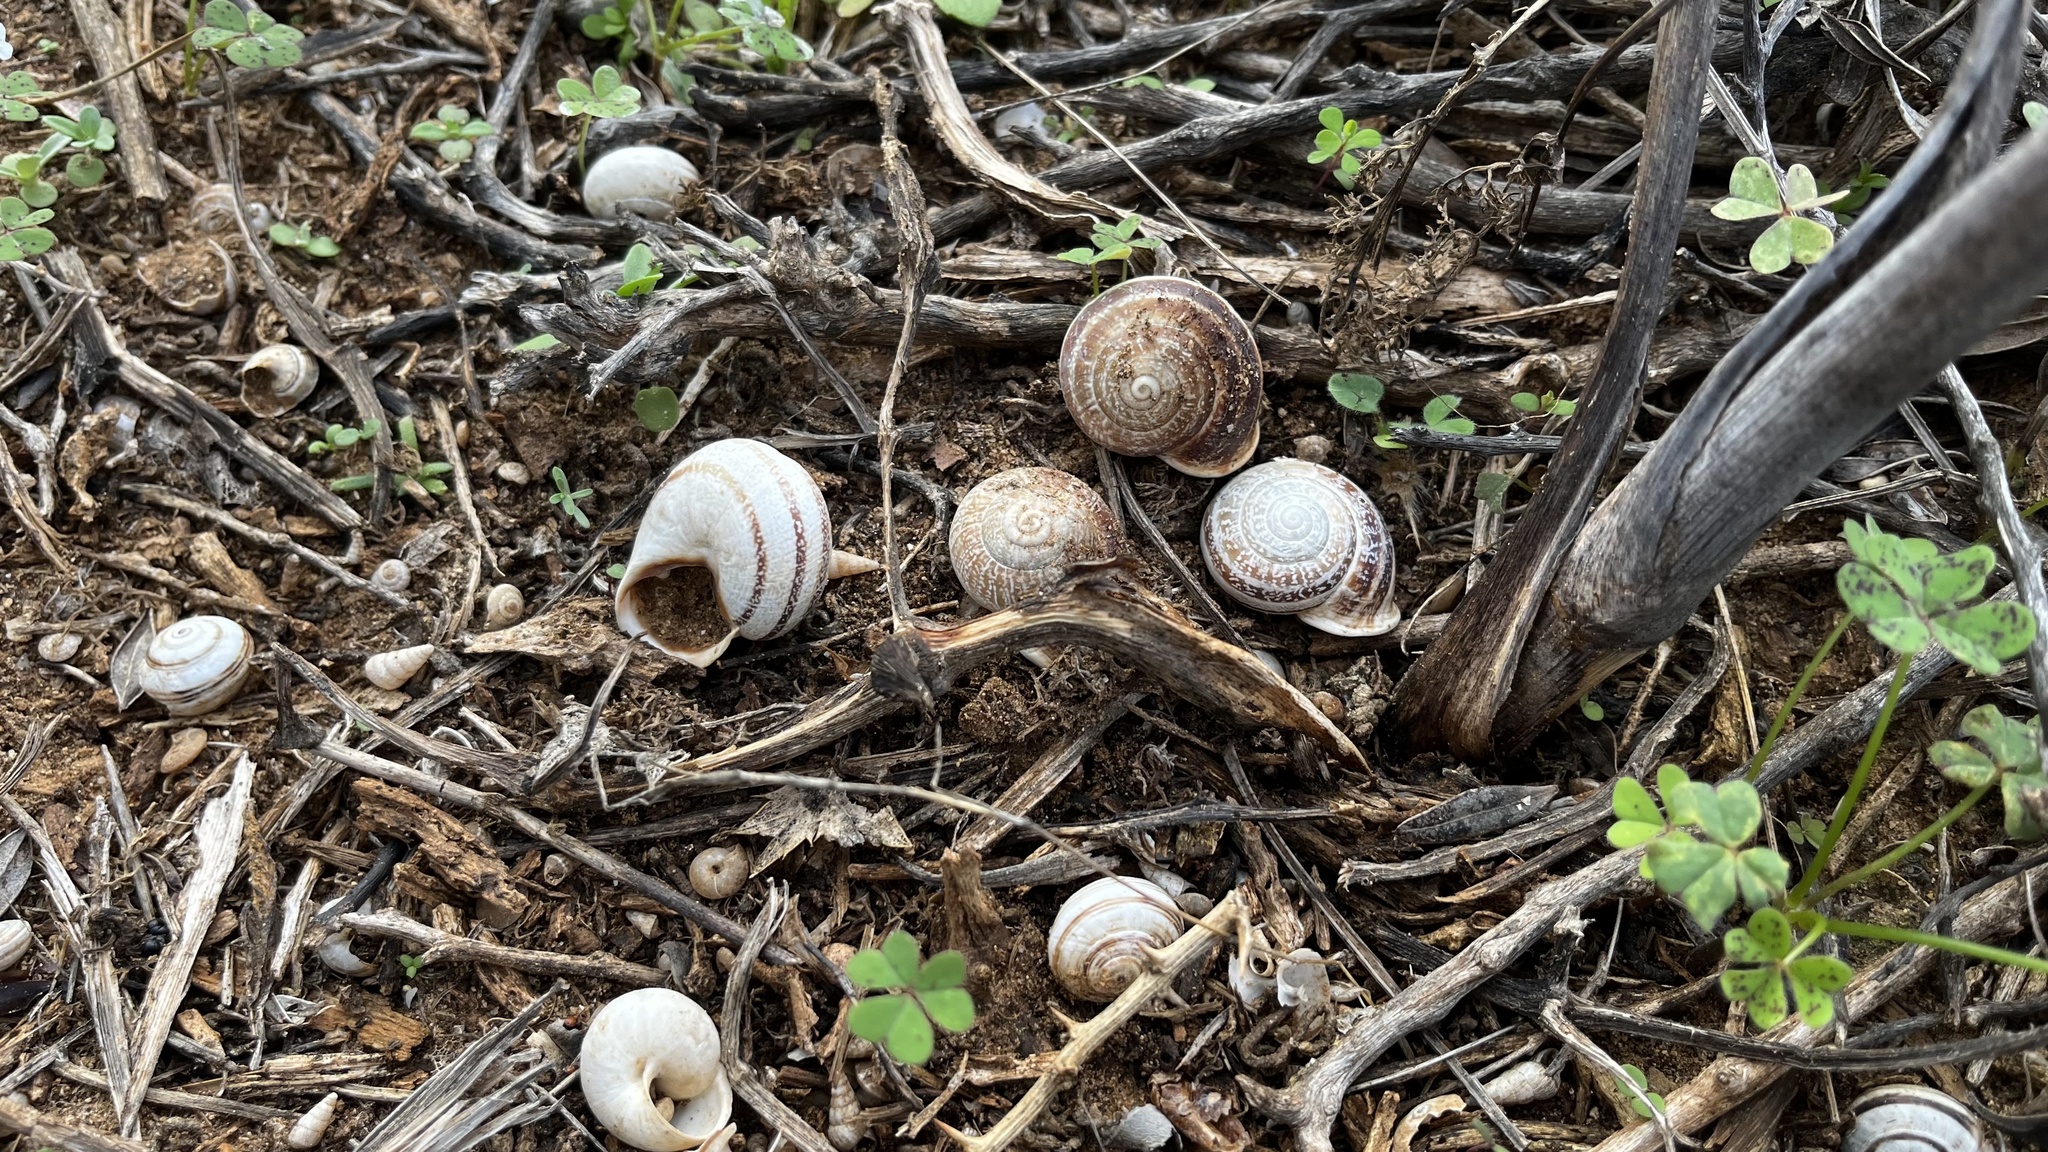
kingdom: Animalia
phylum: Mollusca
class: Gastropoda
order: Stylommatophora
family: Helicidae
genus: Otala
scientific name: Otala lactea
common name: Milk snail
